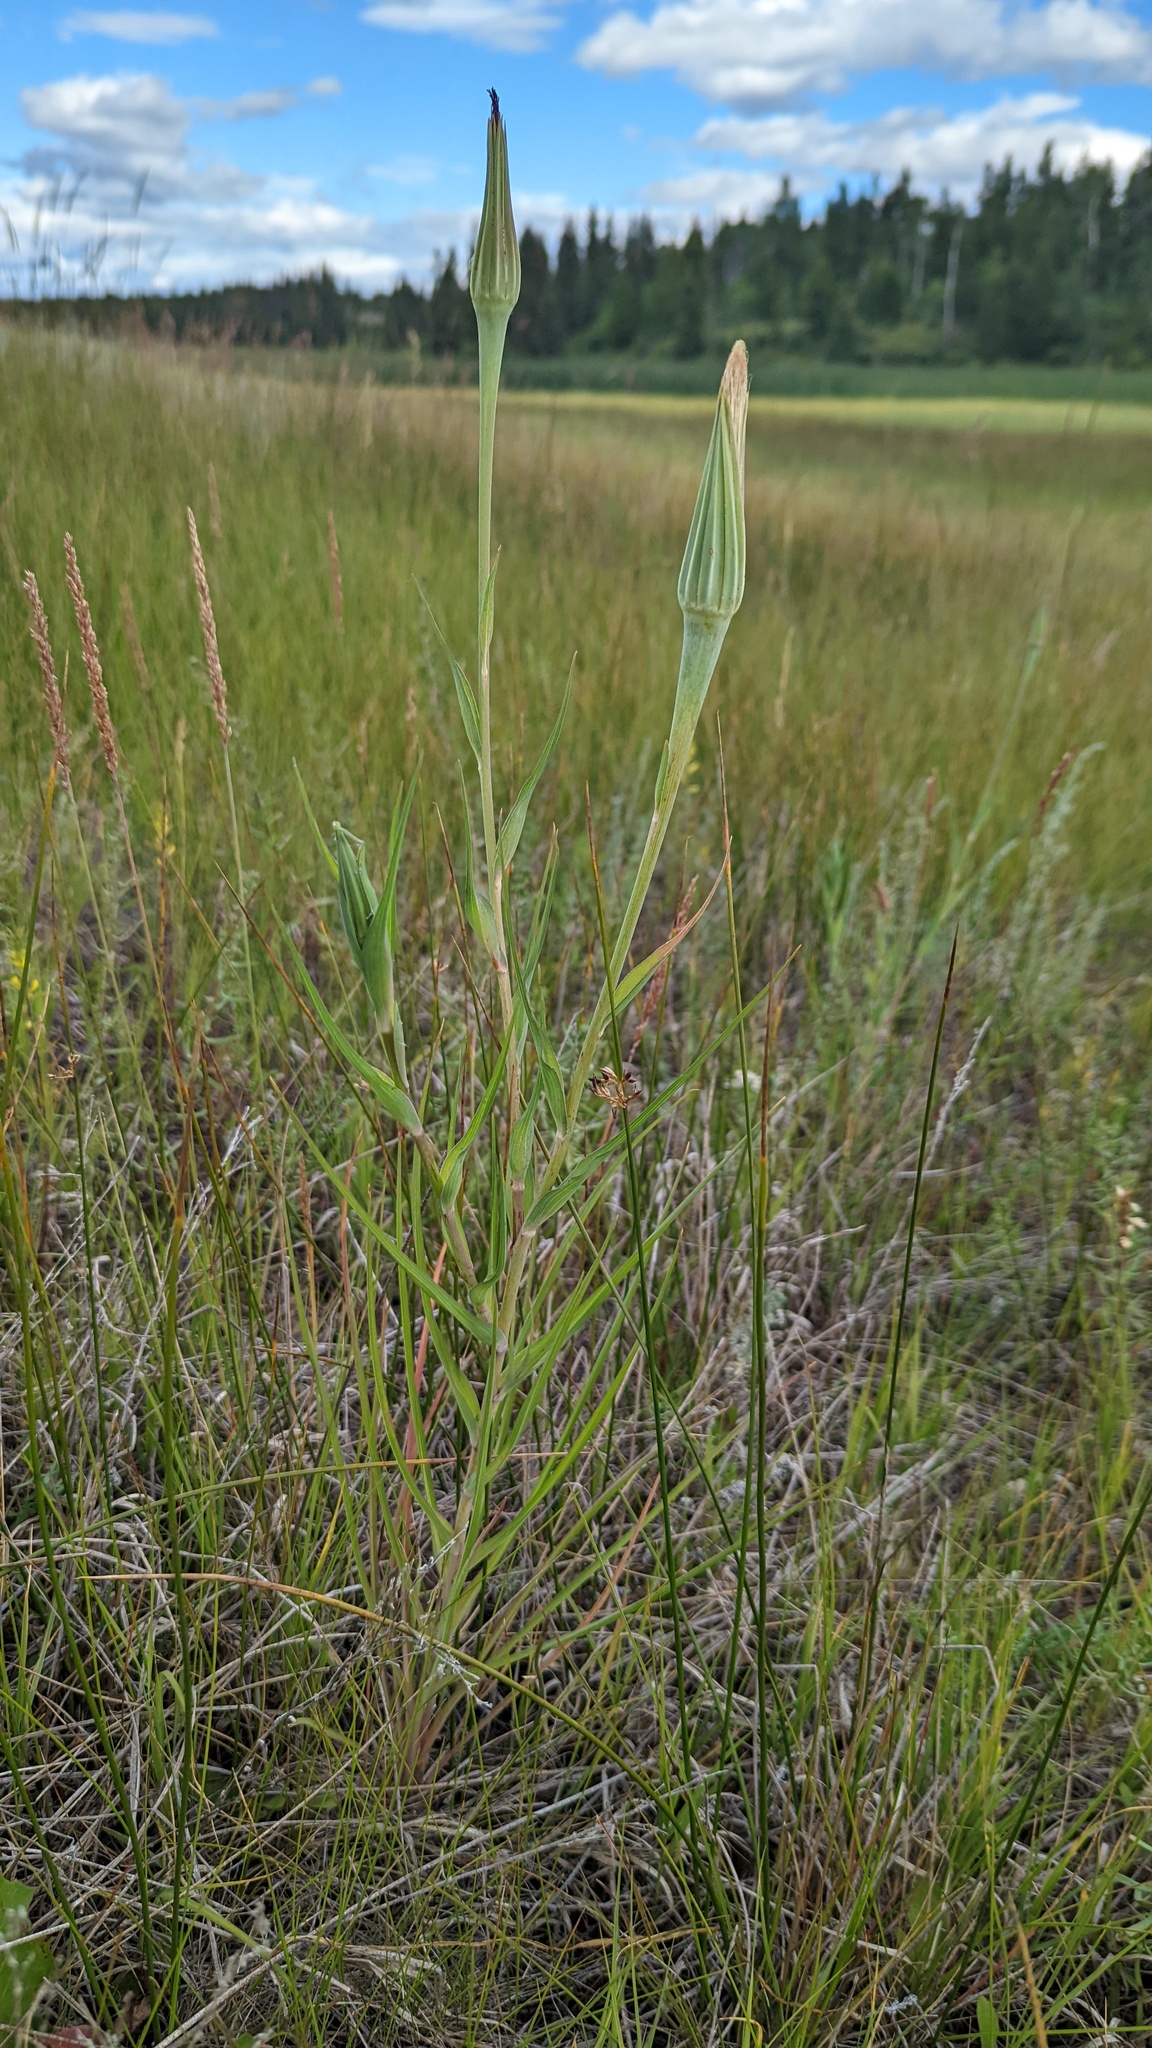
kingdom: Plantae
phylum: Tracheophyta
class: Magnoliopsida
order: Asterales
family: Asteraceae
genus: Tragopogon
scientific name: Tragopogon dubius
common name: Yellow salsify
